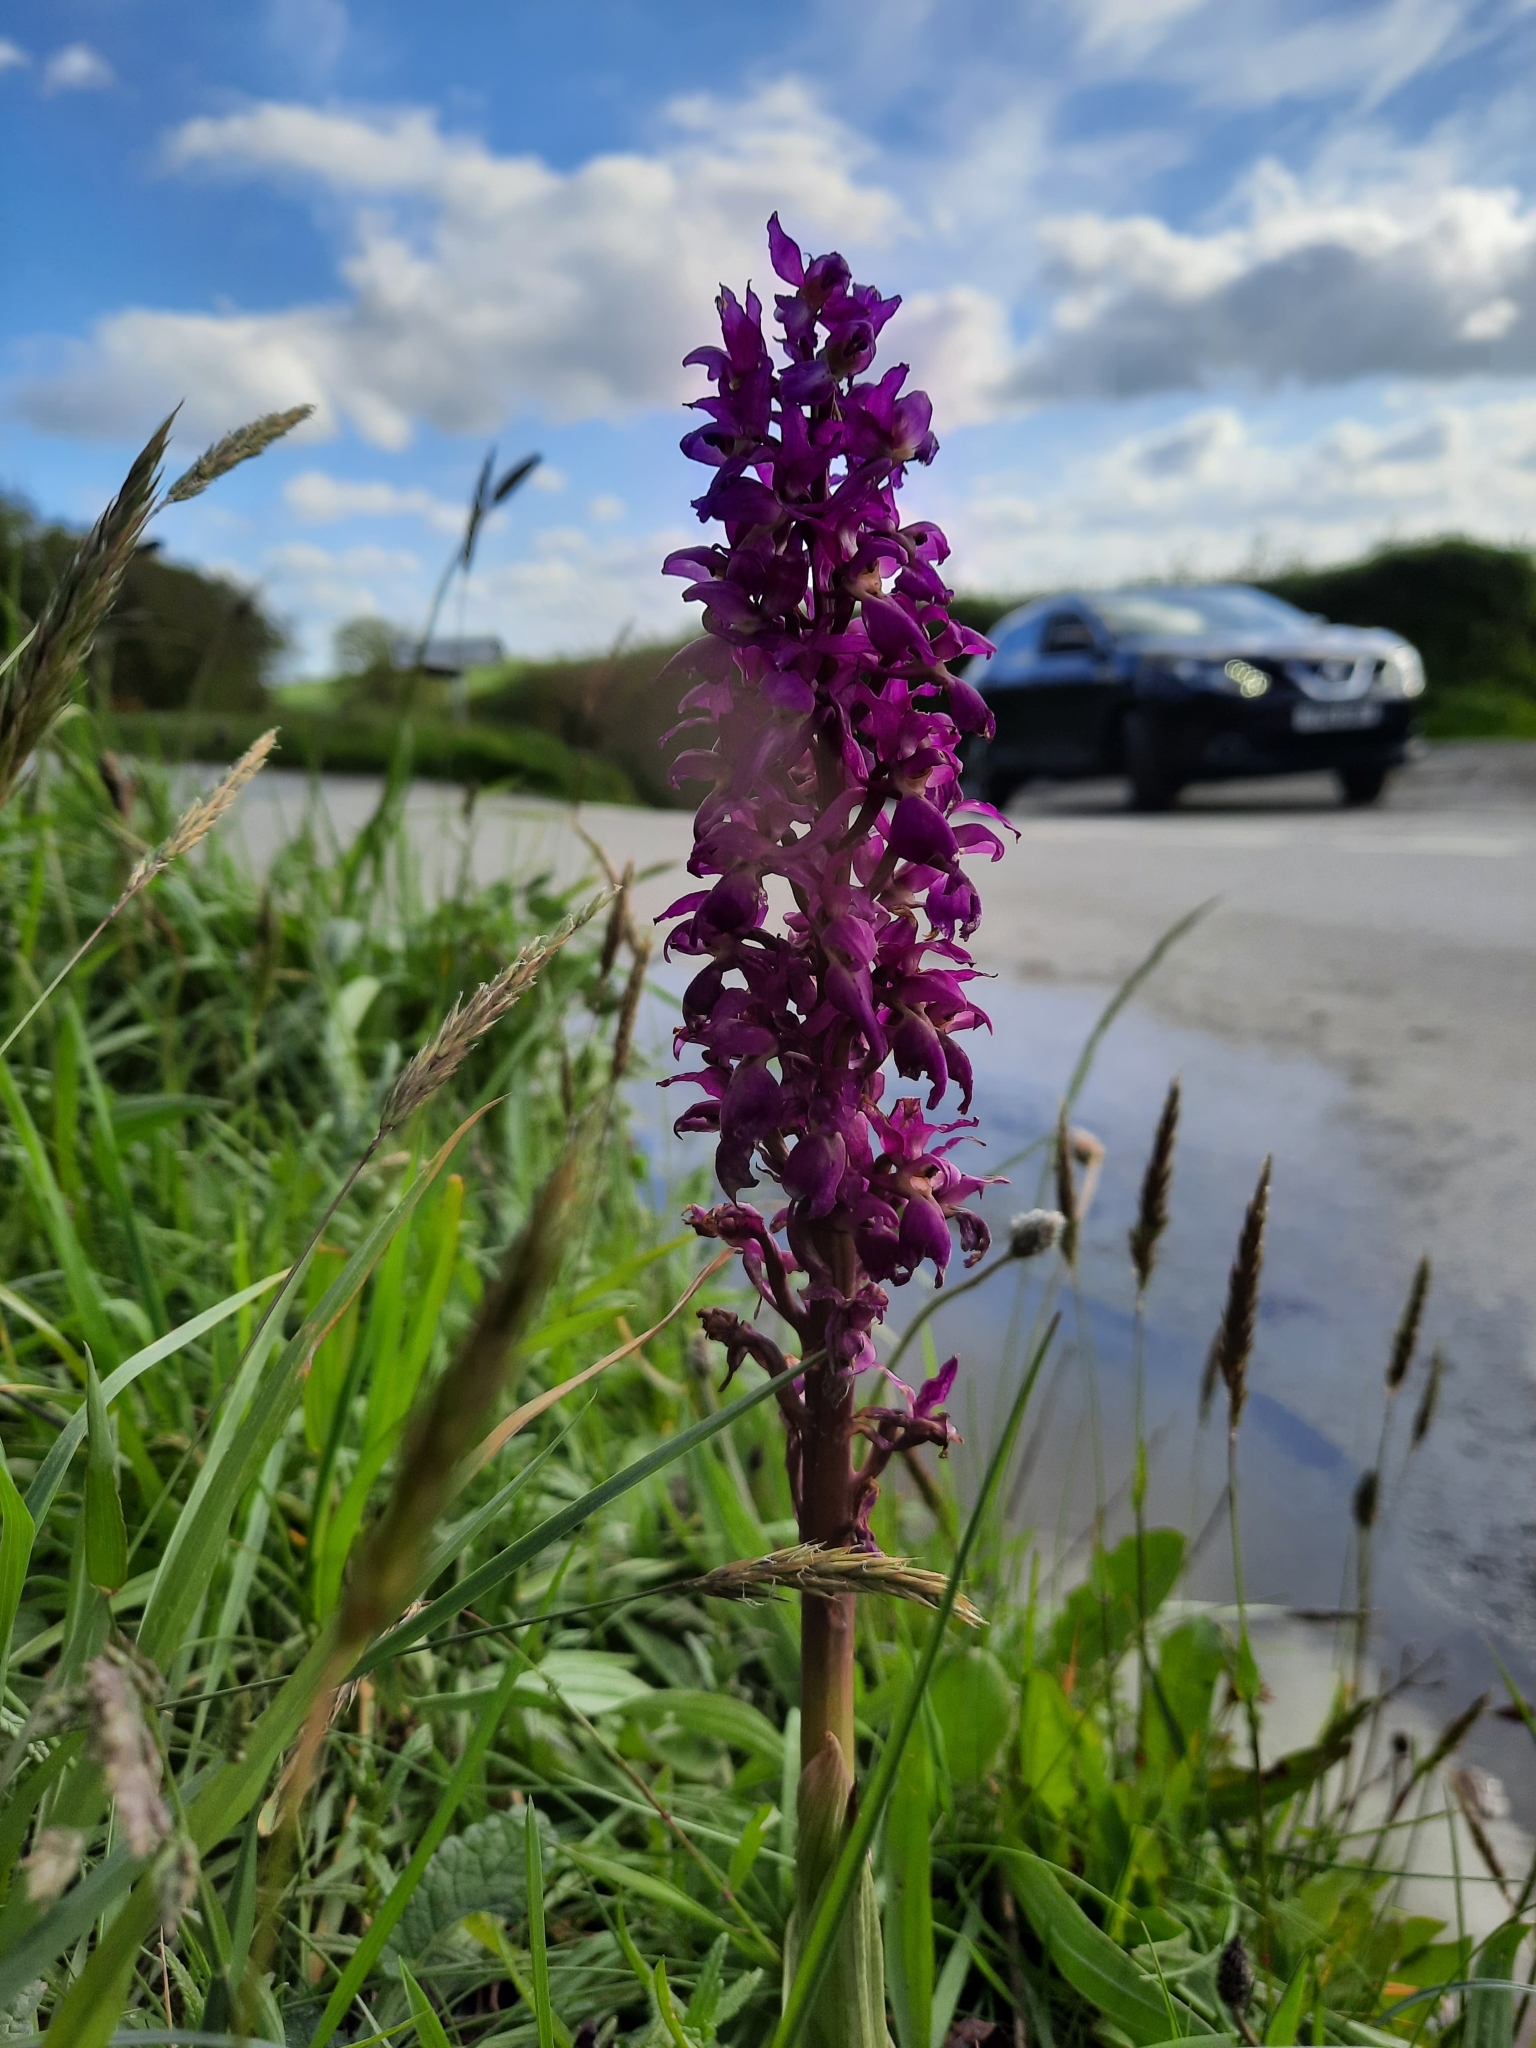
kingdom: Plantae
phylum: Tracheophyta
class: Liliopsida
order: Asparagales
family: Orchidaceae
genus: Orchis
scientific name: Orchis mascula
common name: Early-purple orchid
